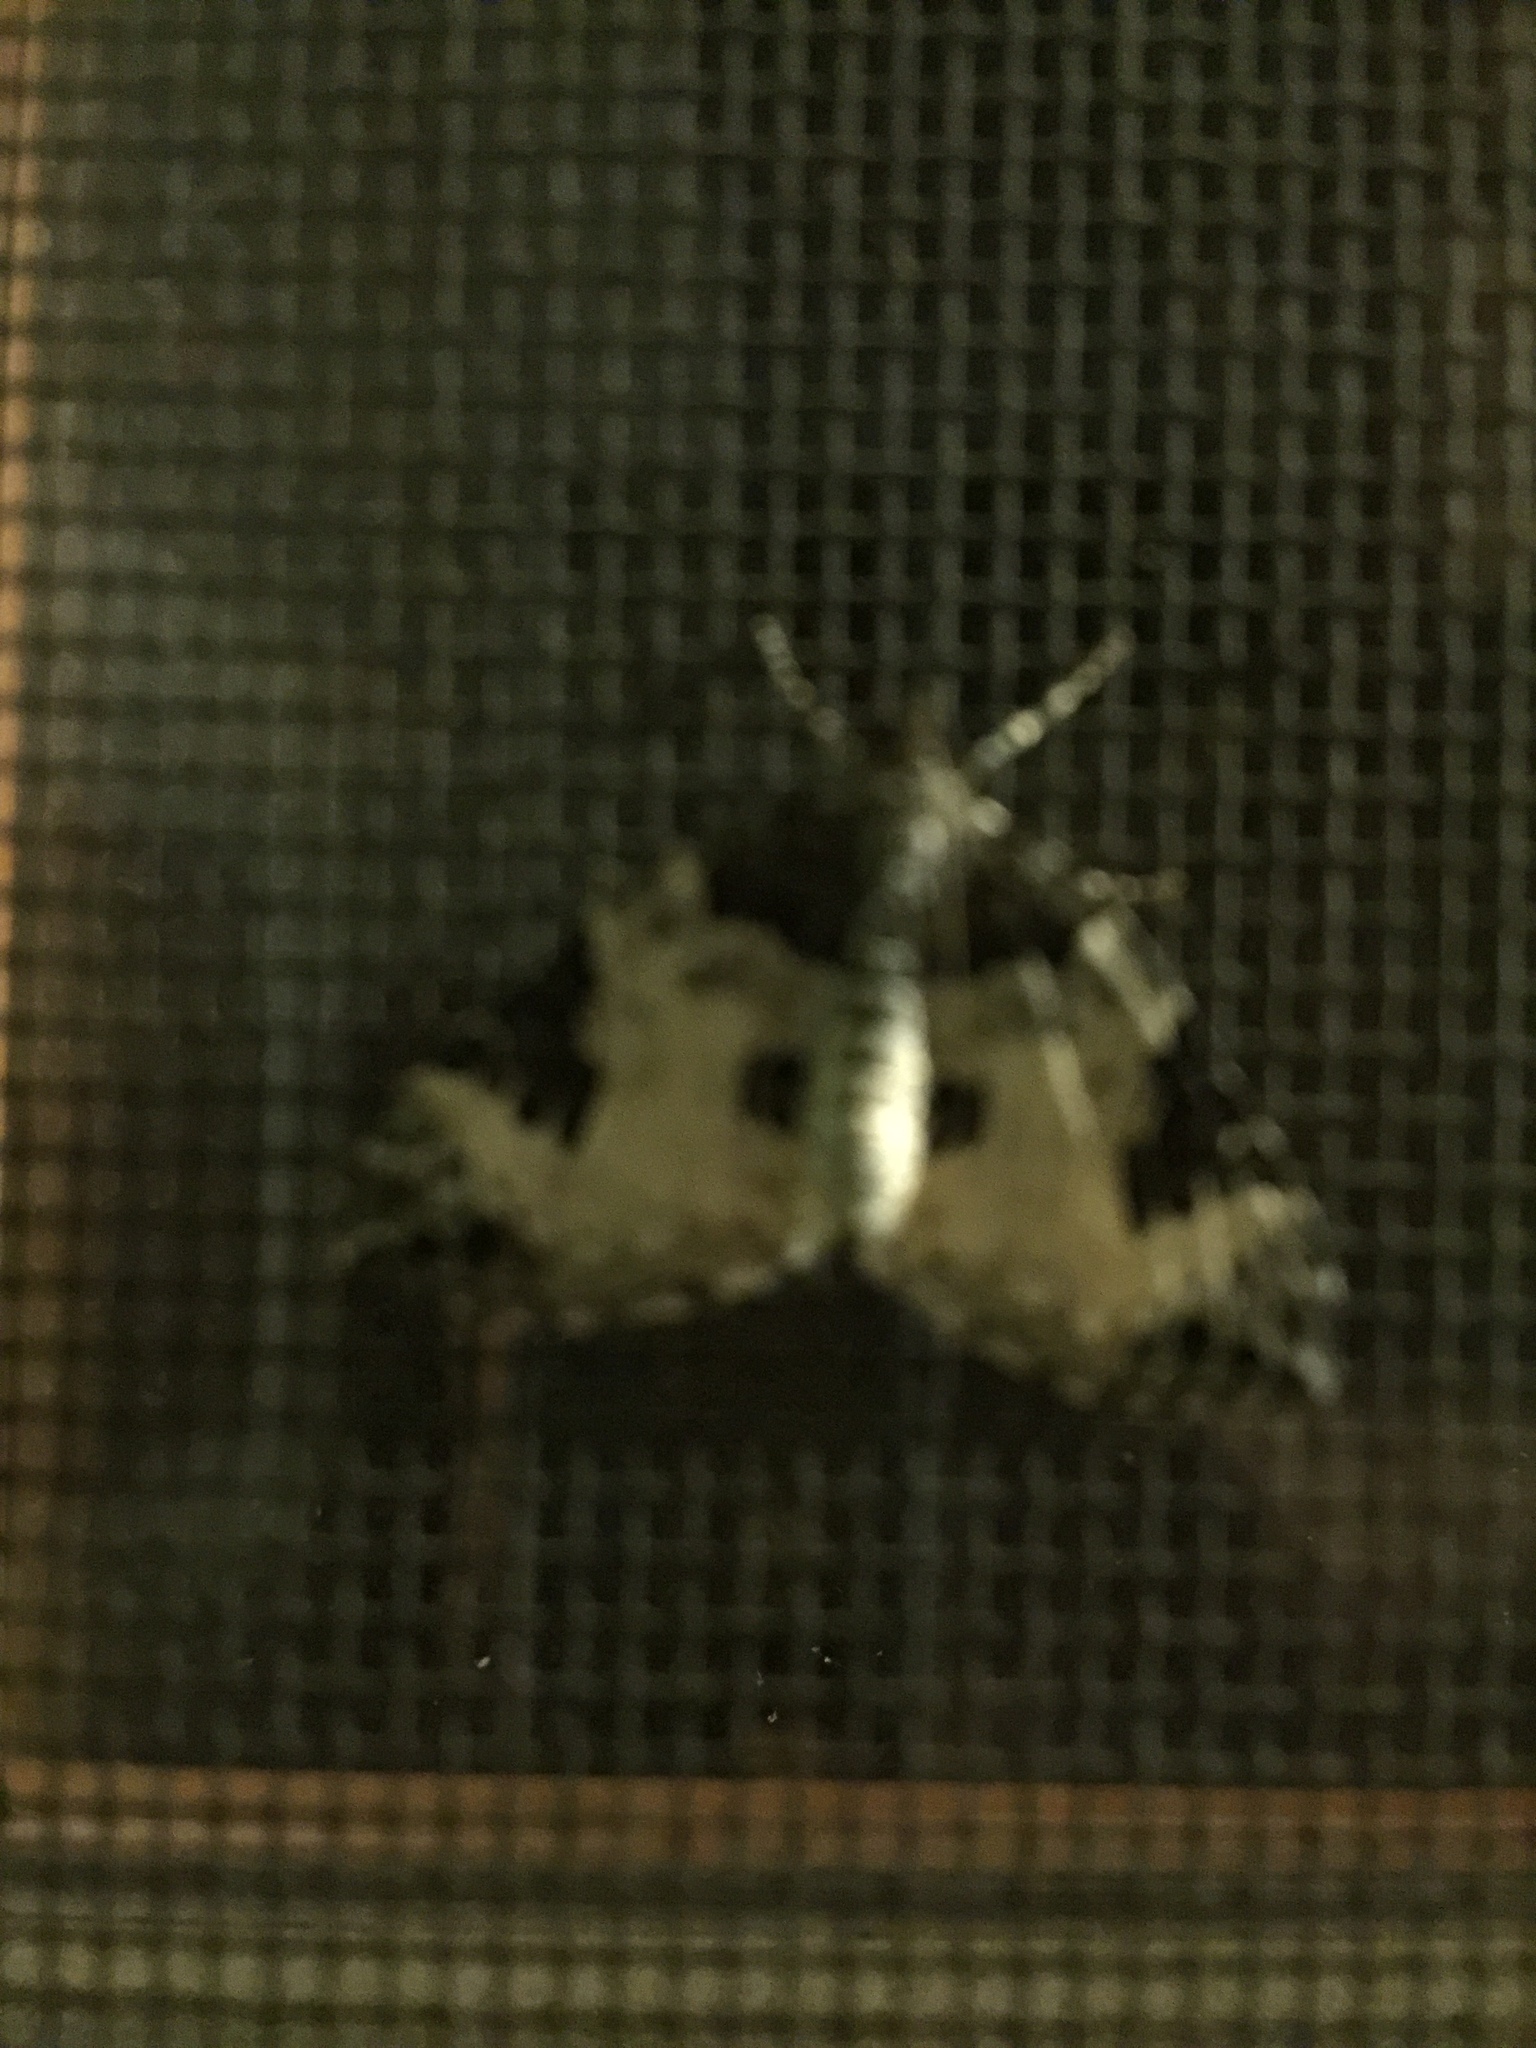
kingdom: Animalia
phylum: Arthropoda
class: Insecta
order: Lepidoptera
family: Geometridae
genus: Eulithis
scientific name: Eulithis explanata
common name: White eulithis
